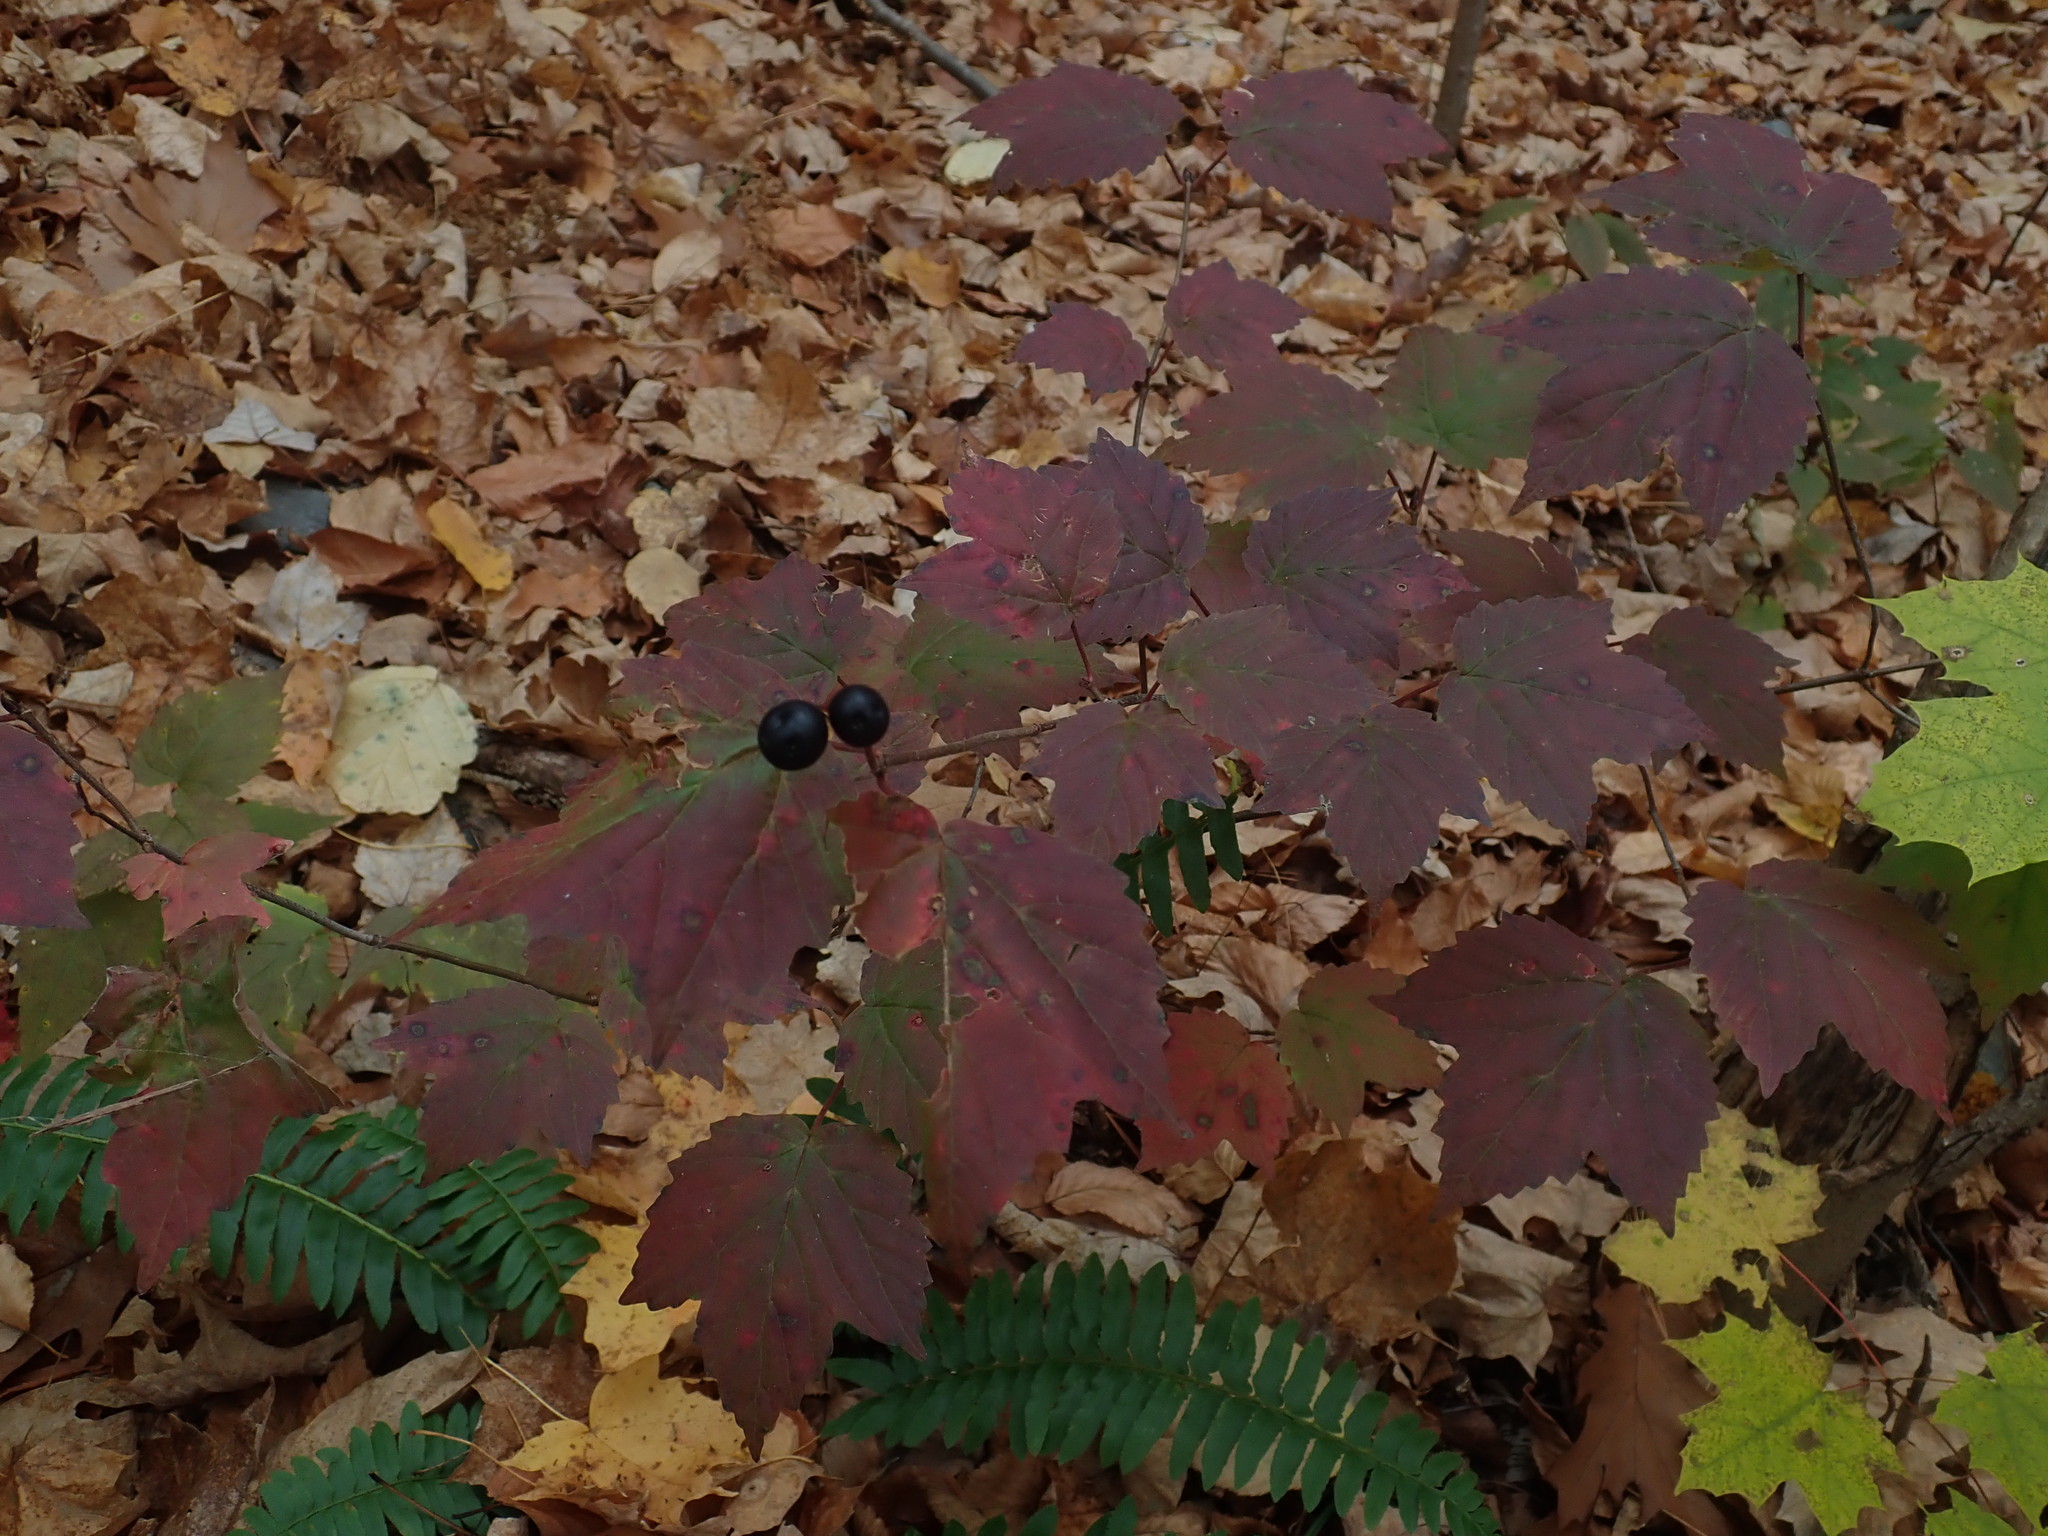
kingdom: Plantae
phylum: Tracheophyta
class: Magnoliopsida
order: Dipsacales
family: Viburnaceae
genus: Viburnum
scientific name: Viburnum acerifolium
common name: Dockmackie
